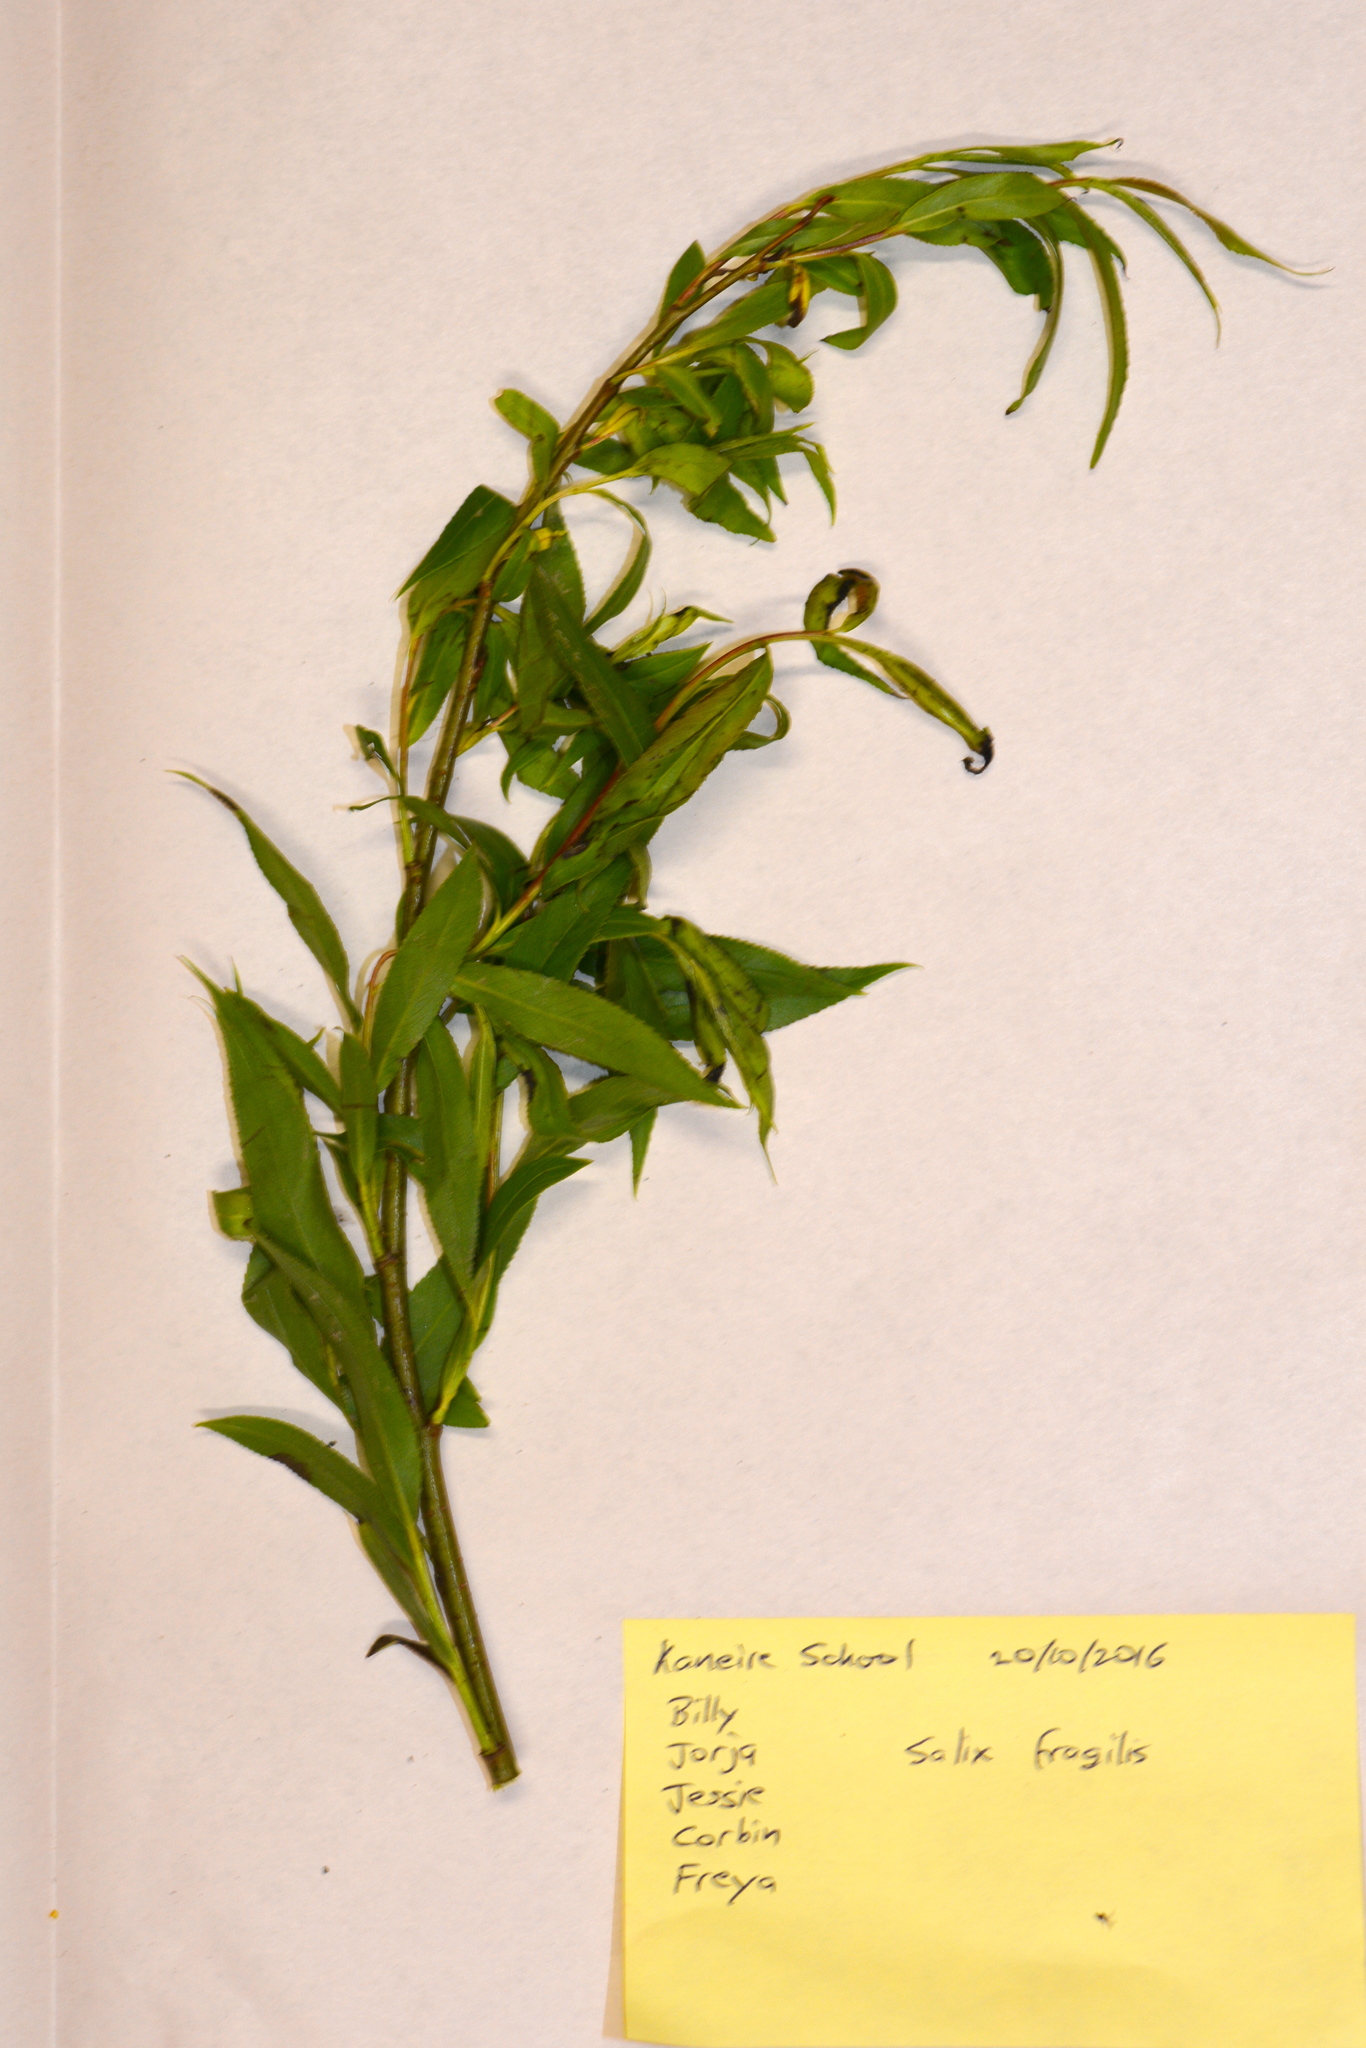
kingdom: Plantae
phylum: Tracheophyta
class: Magnoliopsida
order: Malpighiales
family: Salicaceae
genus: Salix
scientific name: Salix fragilis
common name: Crack willow
